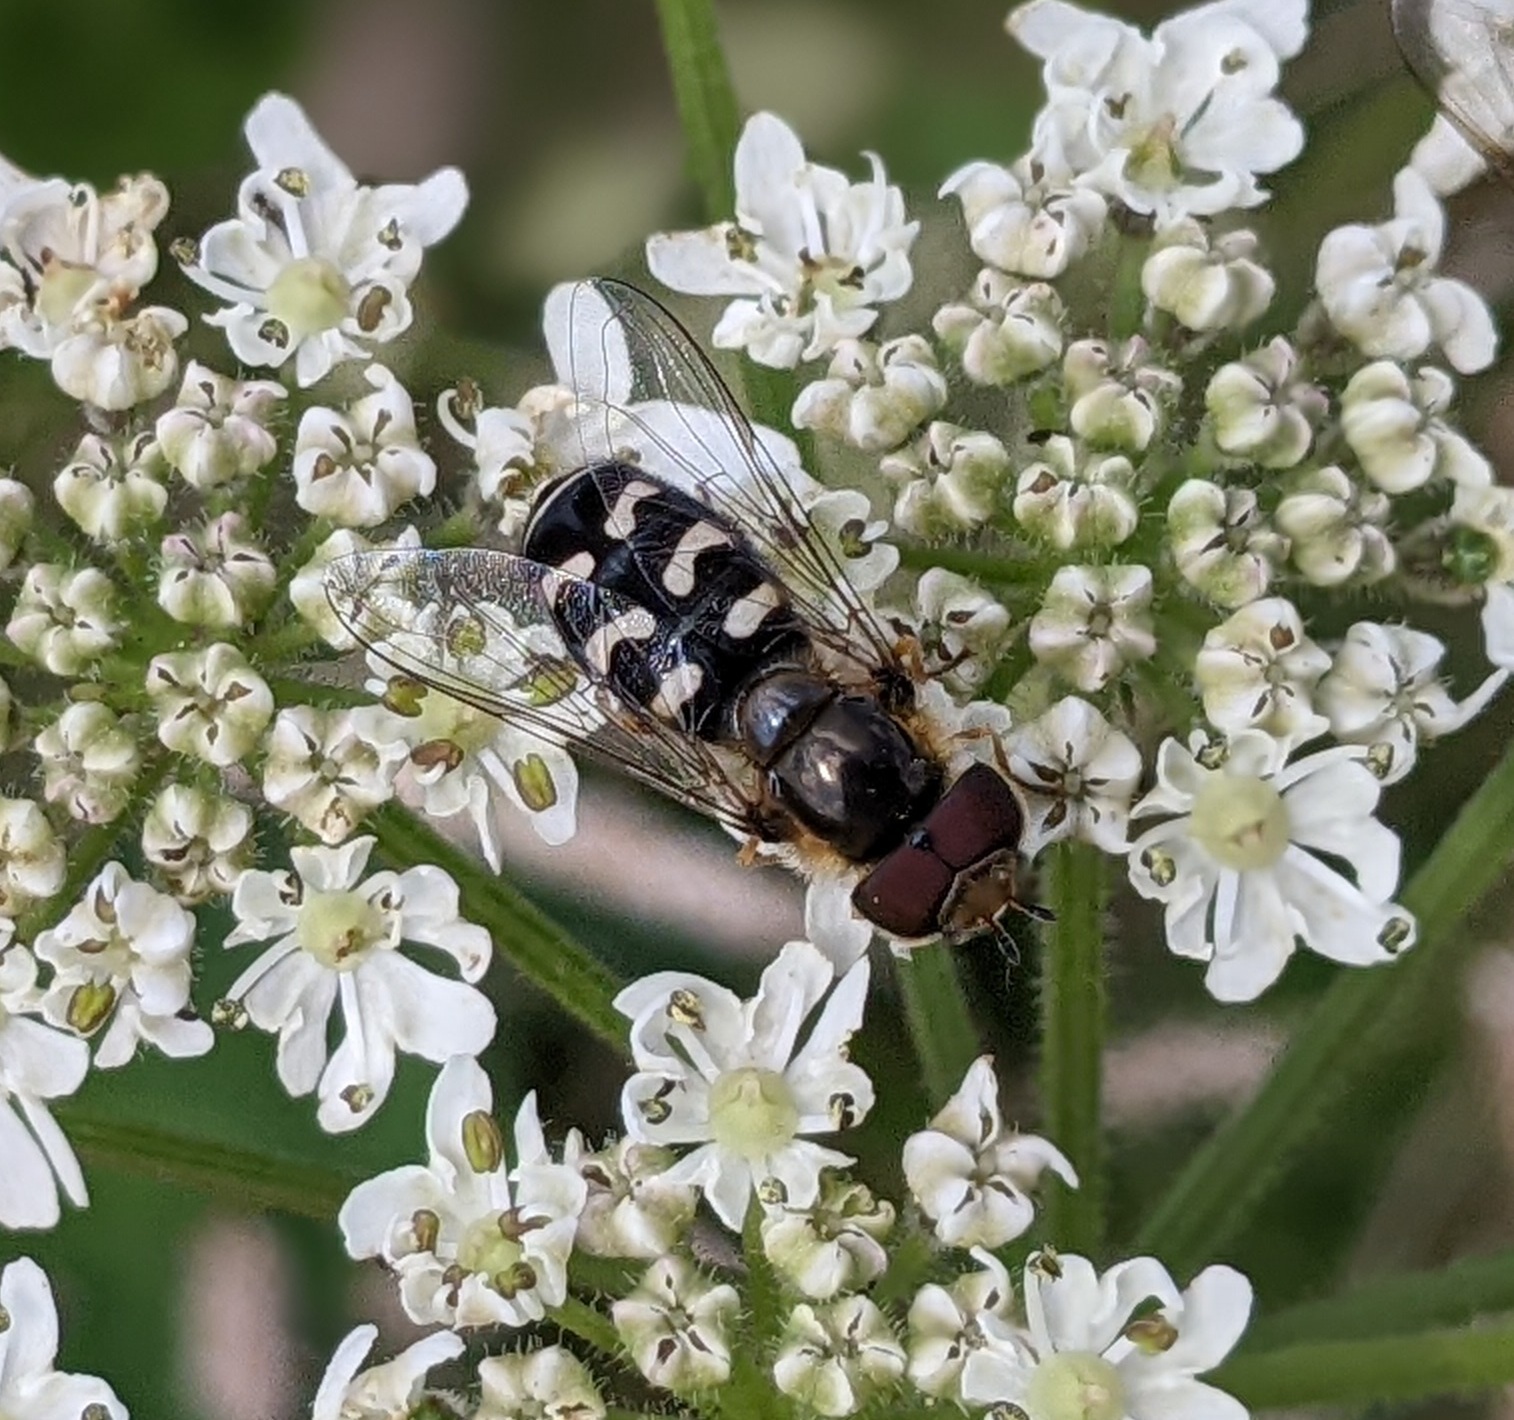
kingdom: Animalia
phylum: Arthropoda
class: Insecta
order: Diptera
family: Syrphidae
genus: Scaeva
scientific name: Scaeva pyrastri
